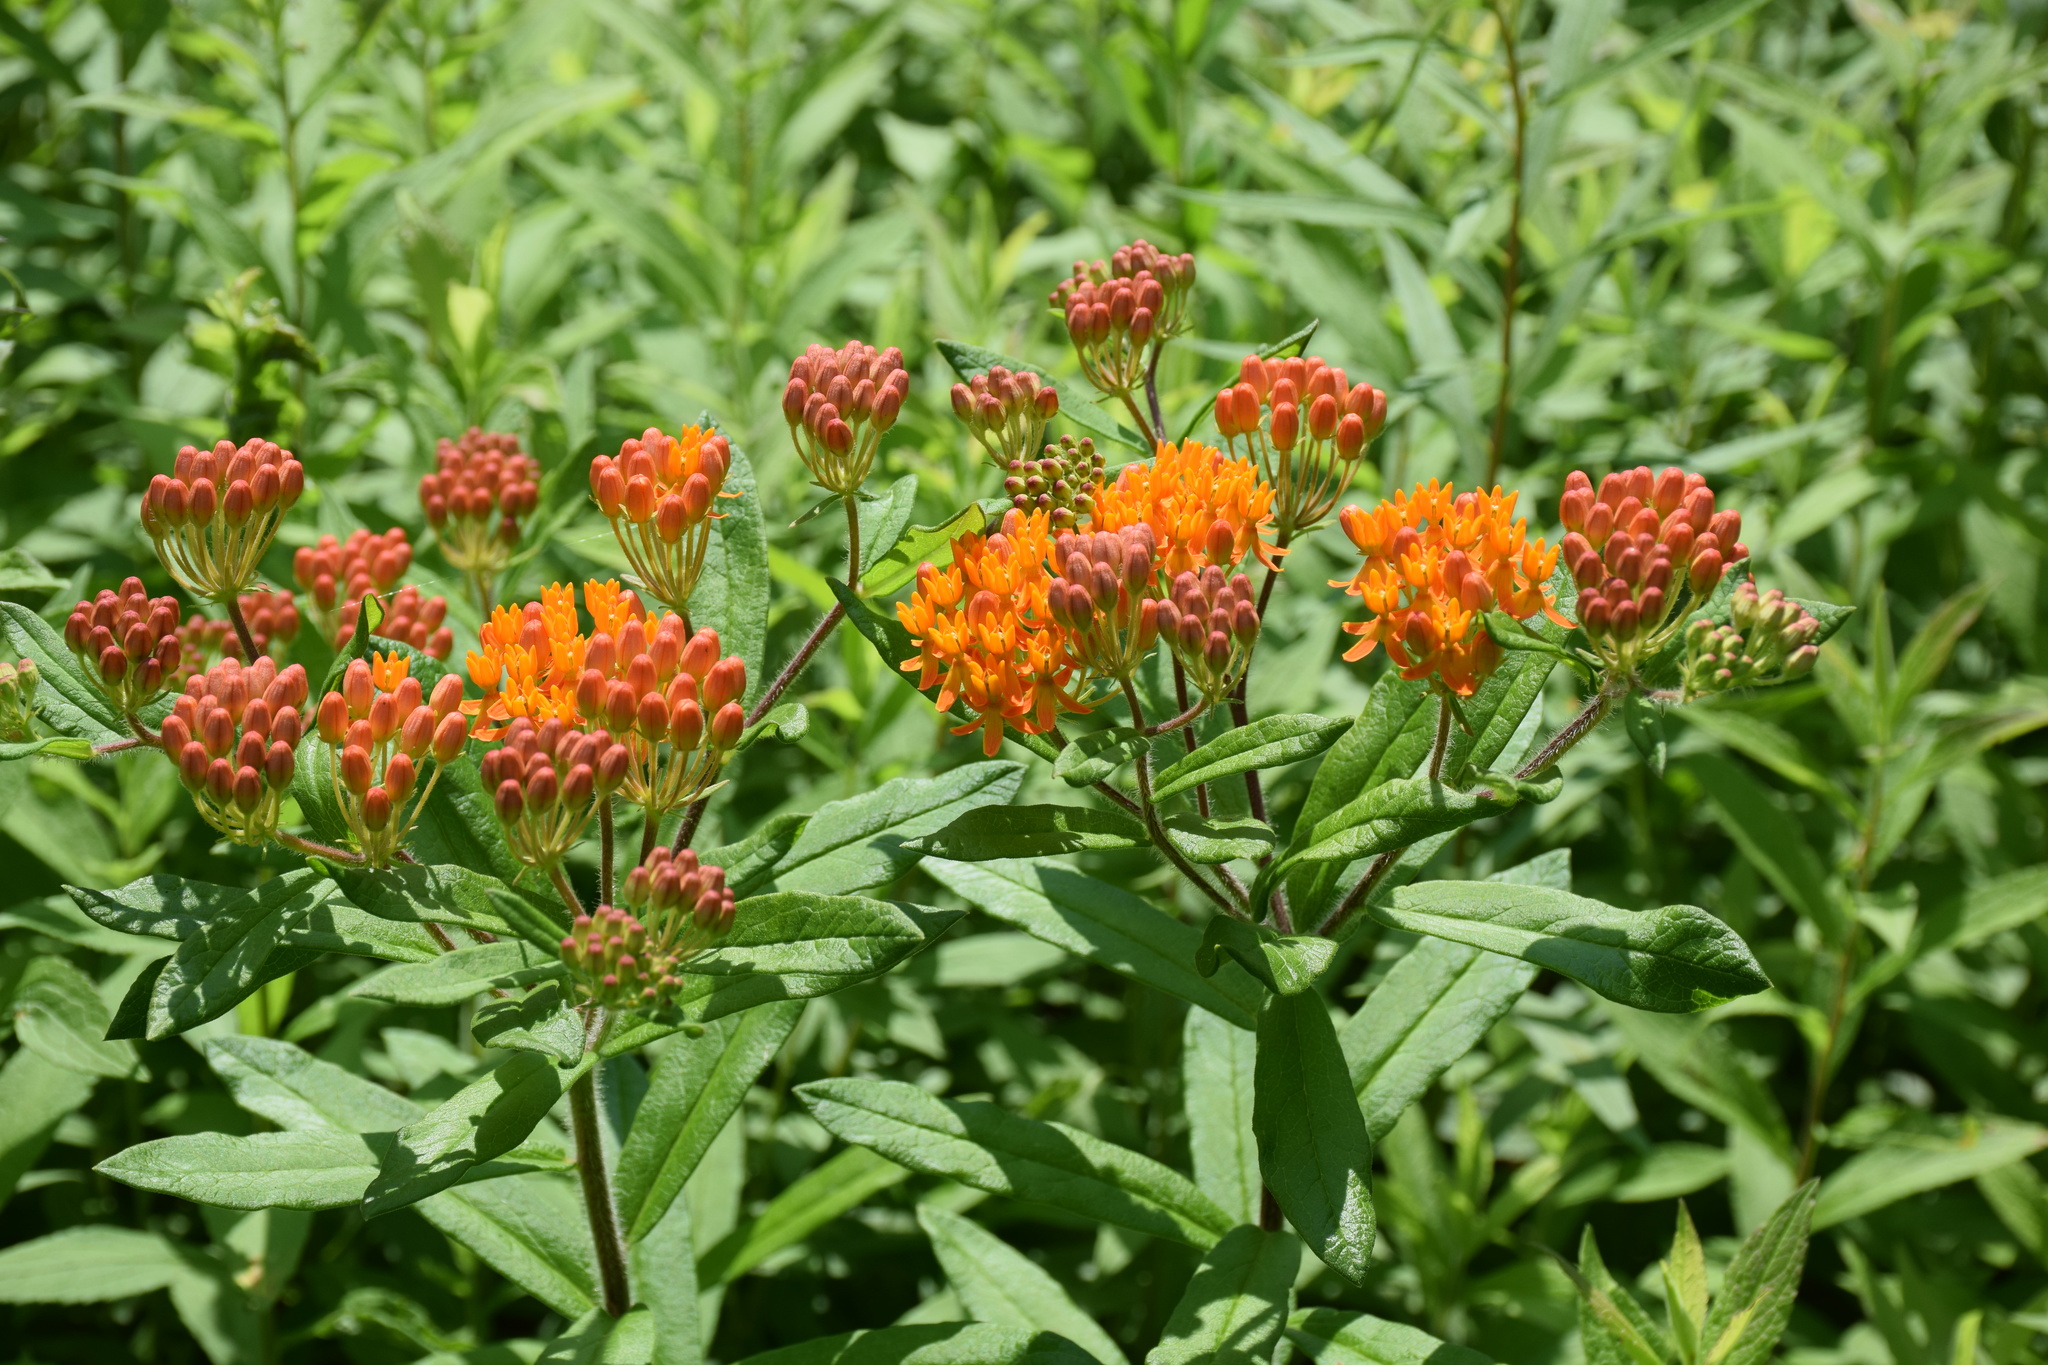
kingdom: Plantae
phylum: Tracheophyta
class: Magnoliopsida
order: Gentianales
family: Apocynaceae
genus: Asclepias
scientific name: Asclepias tuberosa
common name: Butterfly milkweed
